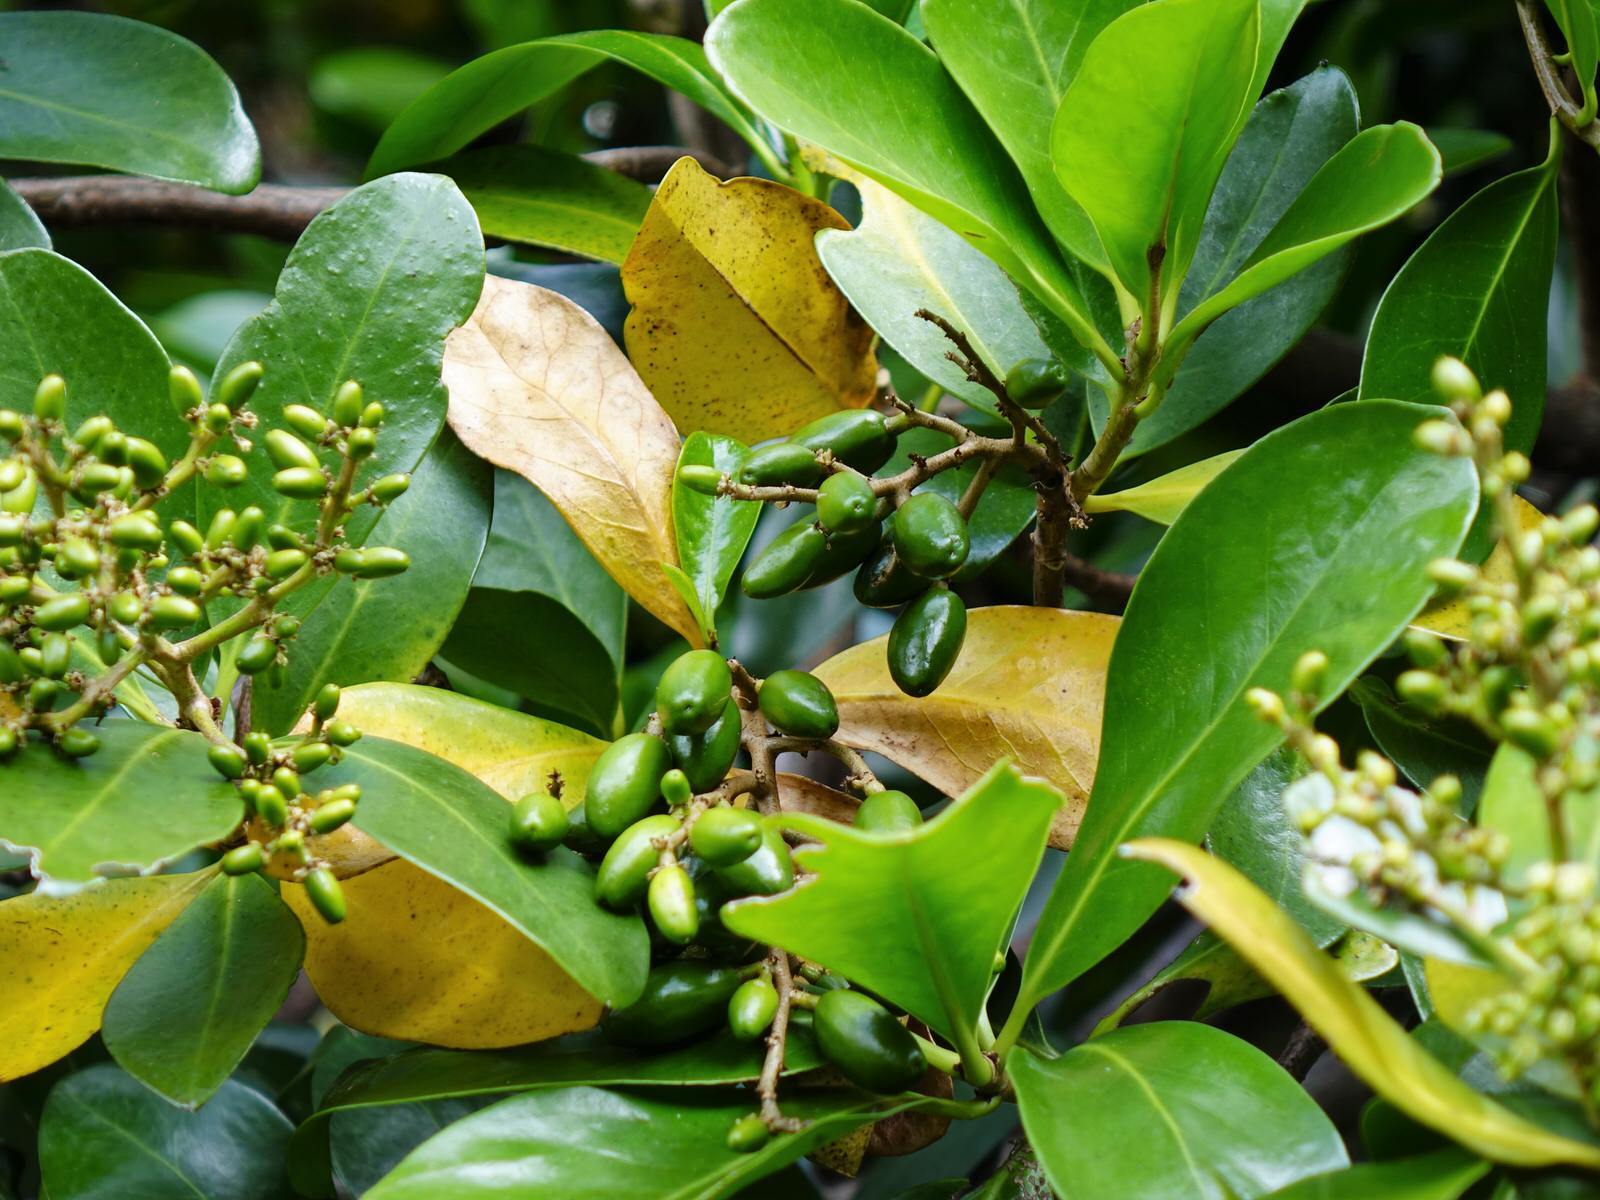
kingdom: Plantae
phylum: Tracheophyta
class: Magnoliopsida
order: Cucurbitales
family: Corynocarpaceae
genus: Corynocarpus
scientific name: Corynocarpus laevigatus
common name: New zealand laurel
